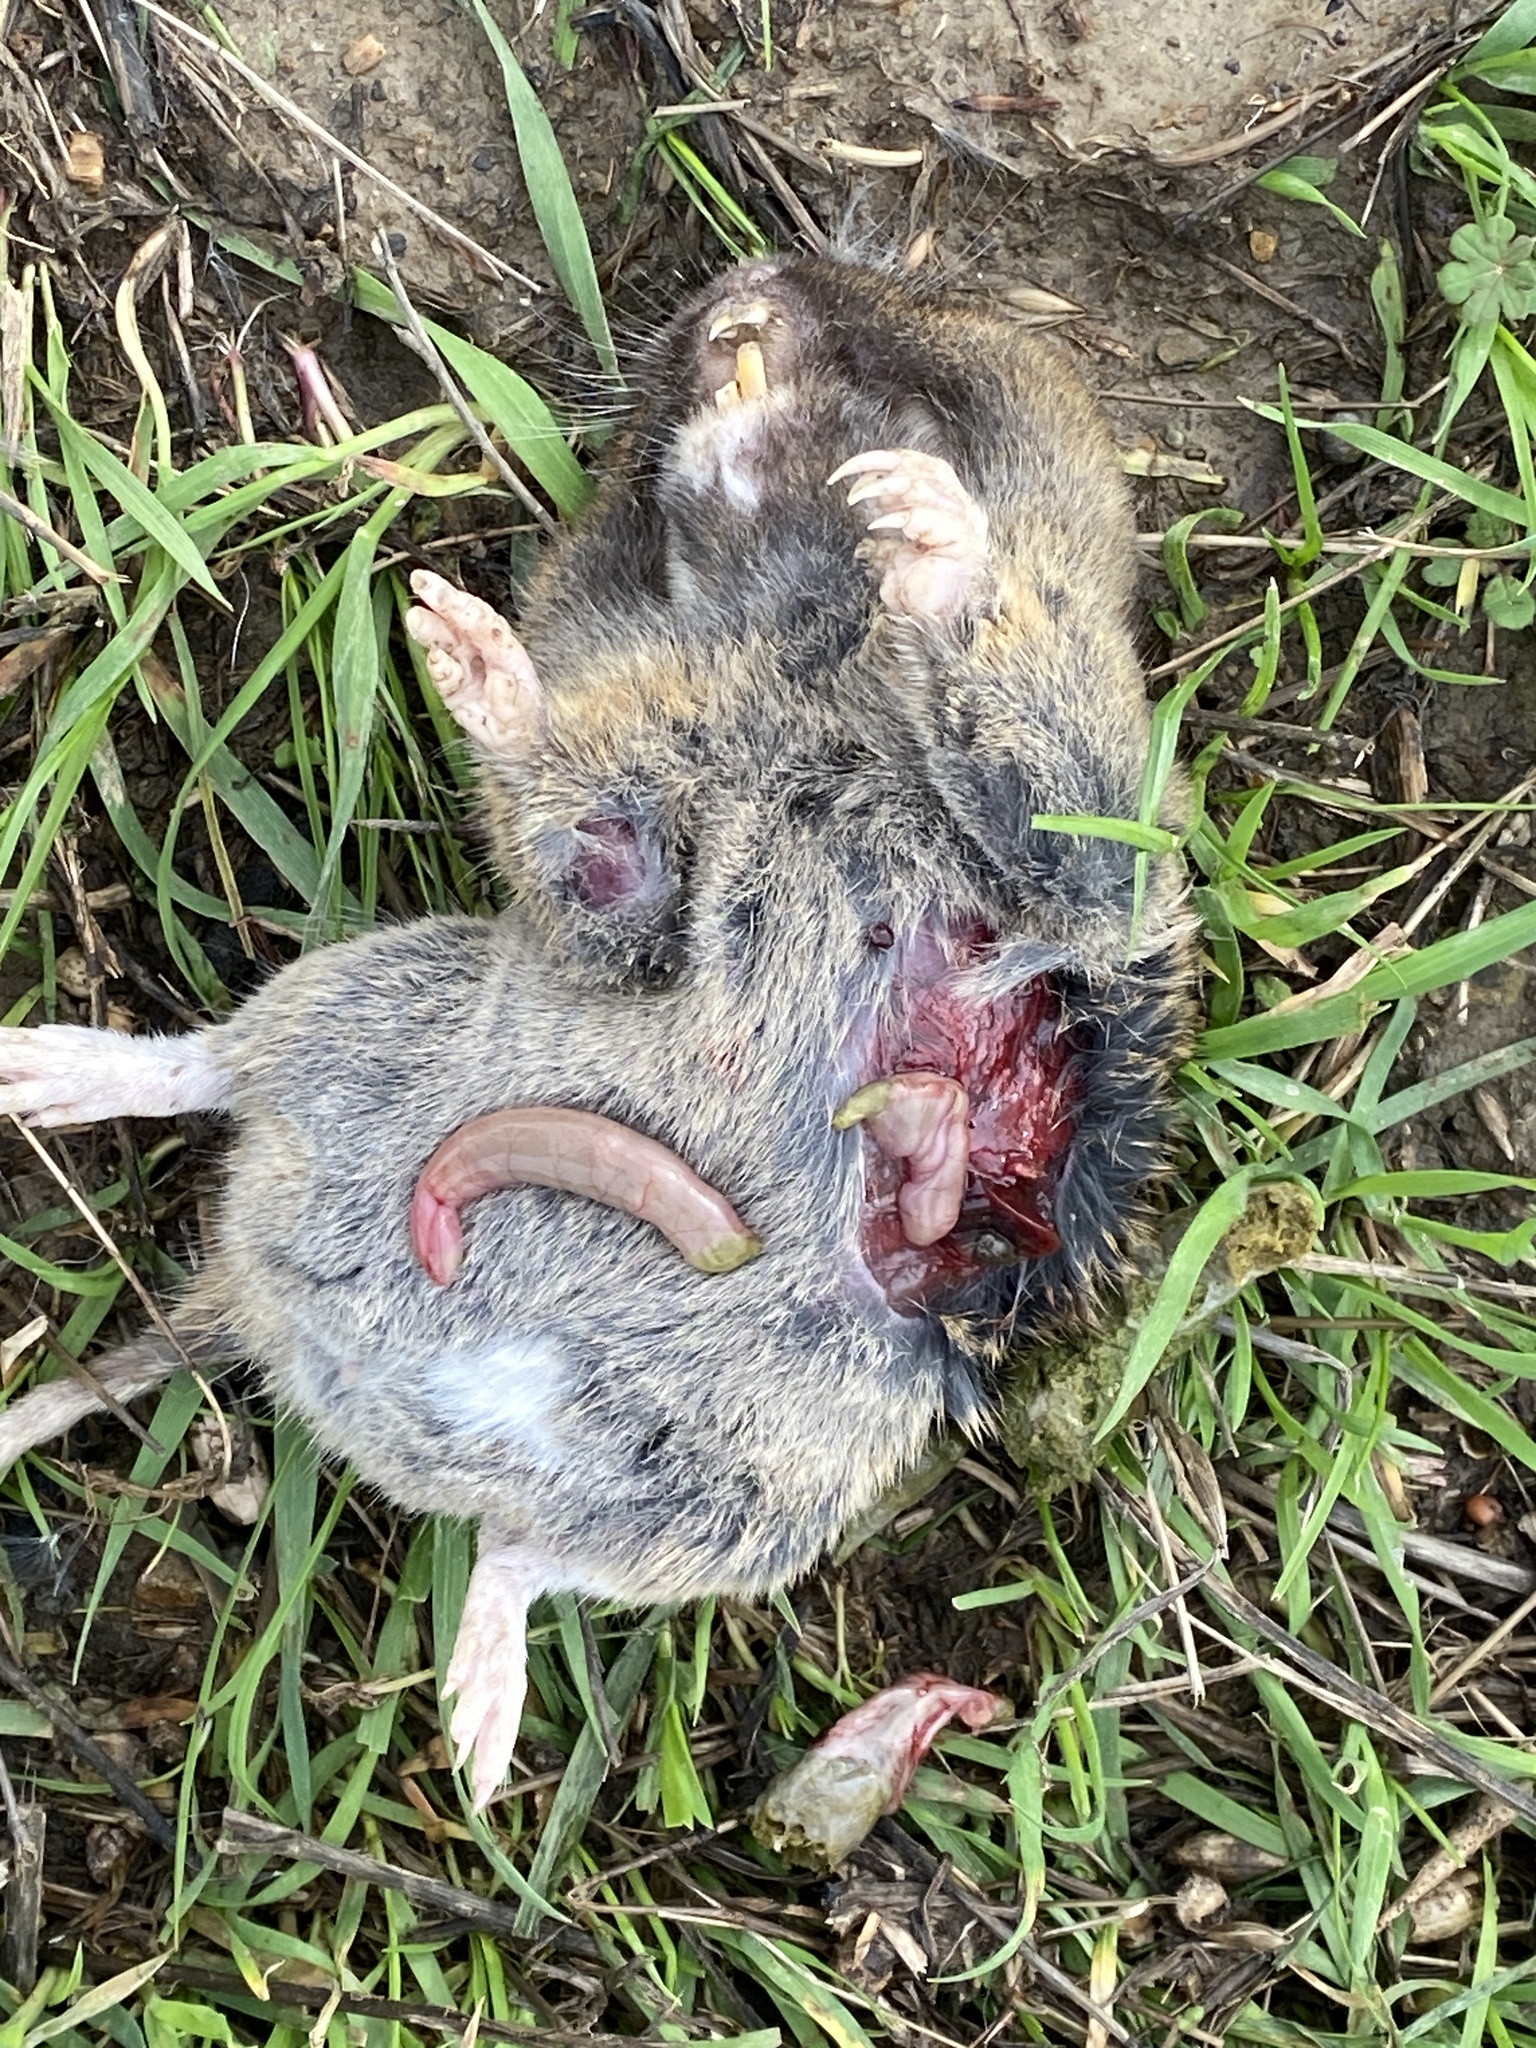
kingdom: Animalia
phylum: Chordata
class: Mammalia
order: Rodentia
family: Geomyidae
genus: Thomomys
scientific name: Thomomys bottae
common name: Botta's pocket gopher
